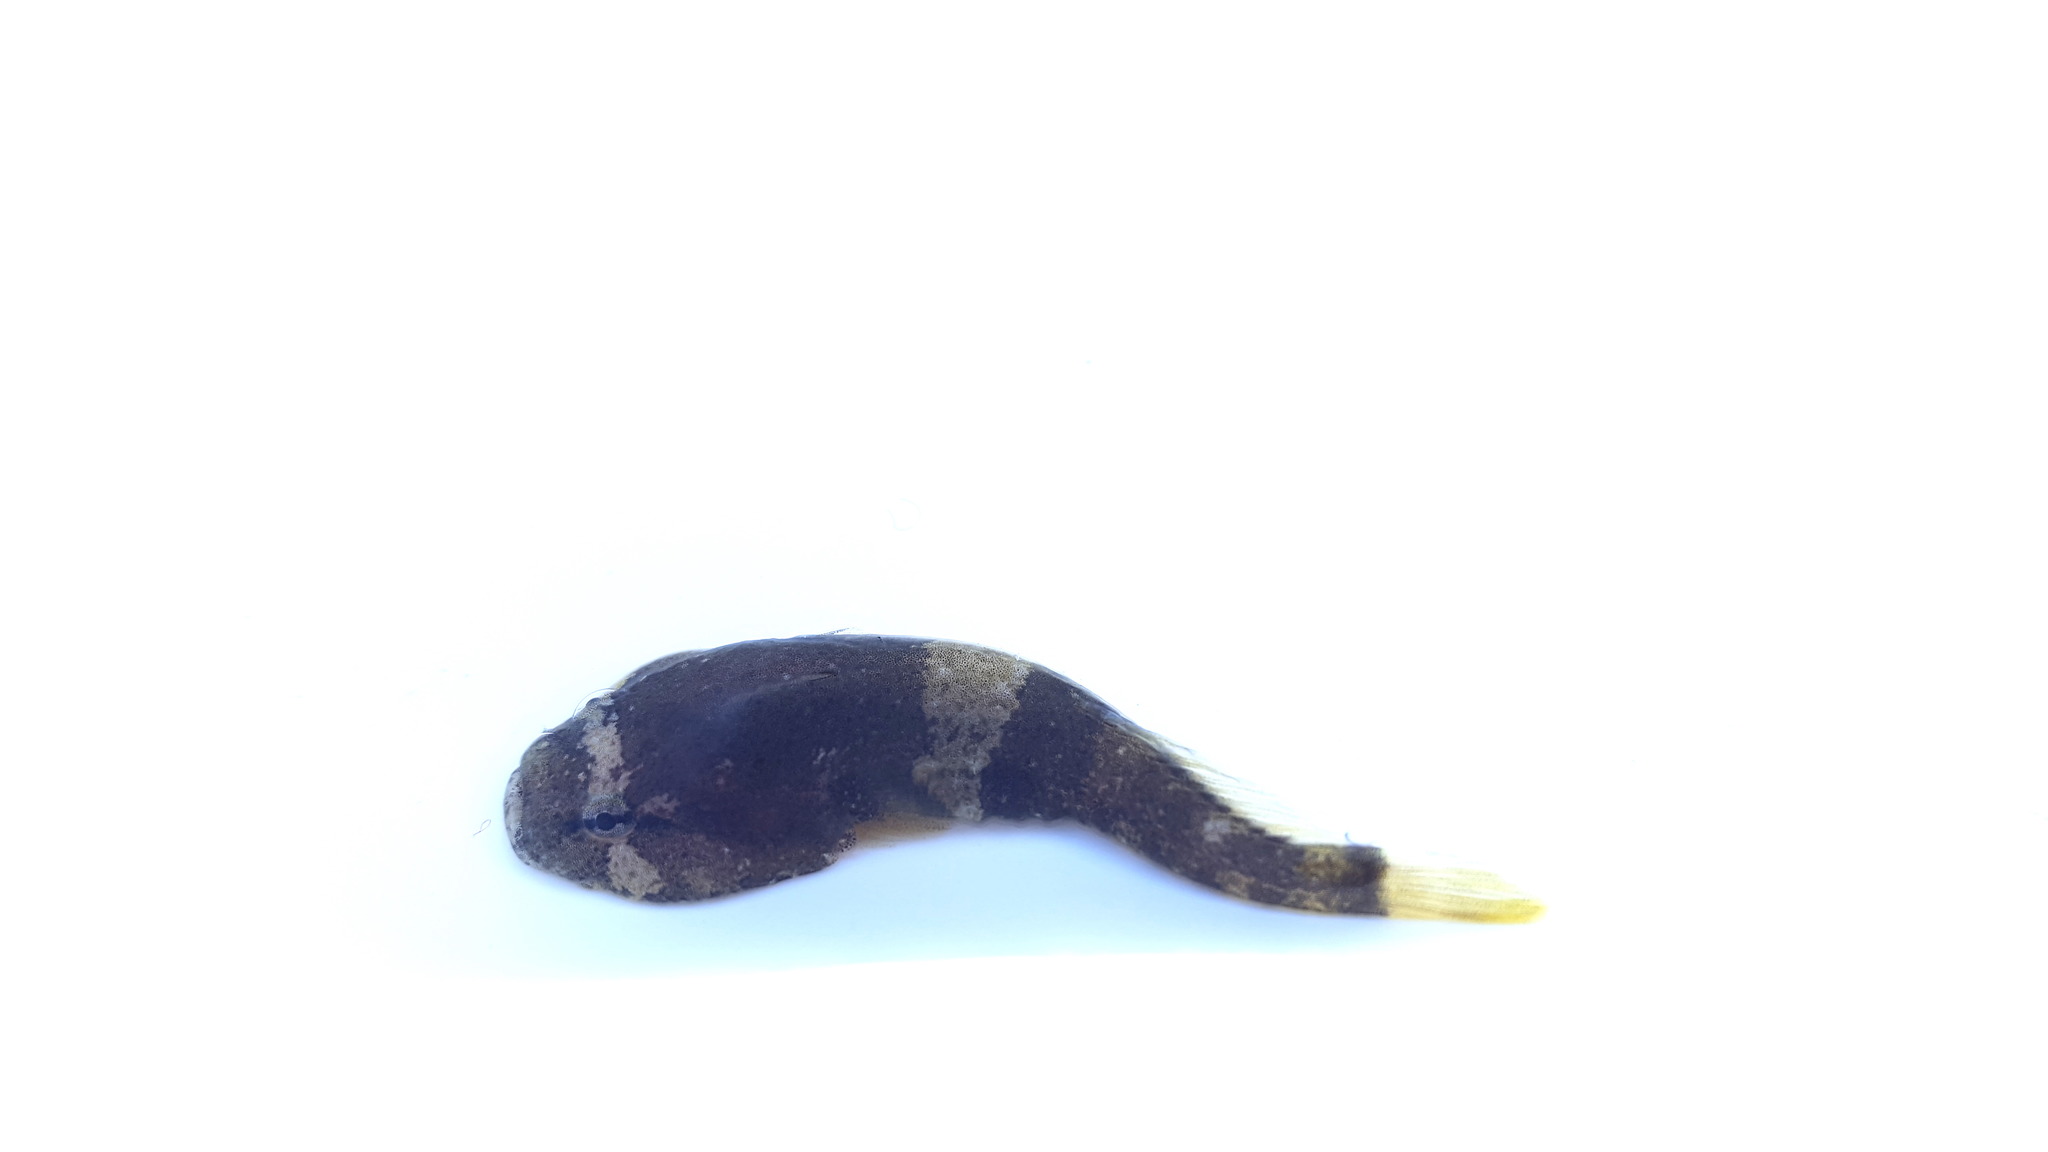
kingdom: Animalia
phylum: Chordata
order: Gobiesociformes
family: Gobiesocidae
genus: Gobiesox
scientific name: Gobiesox rhessodon
